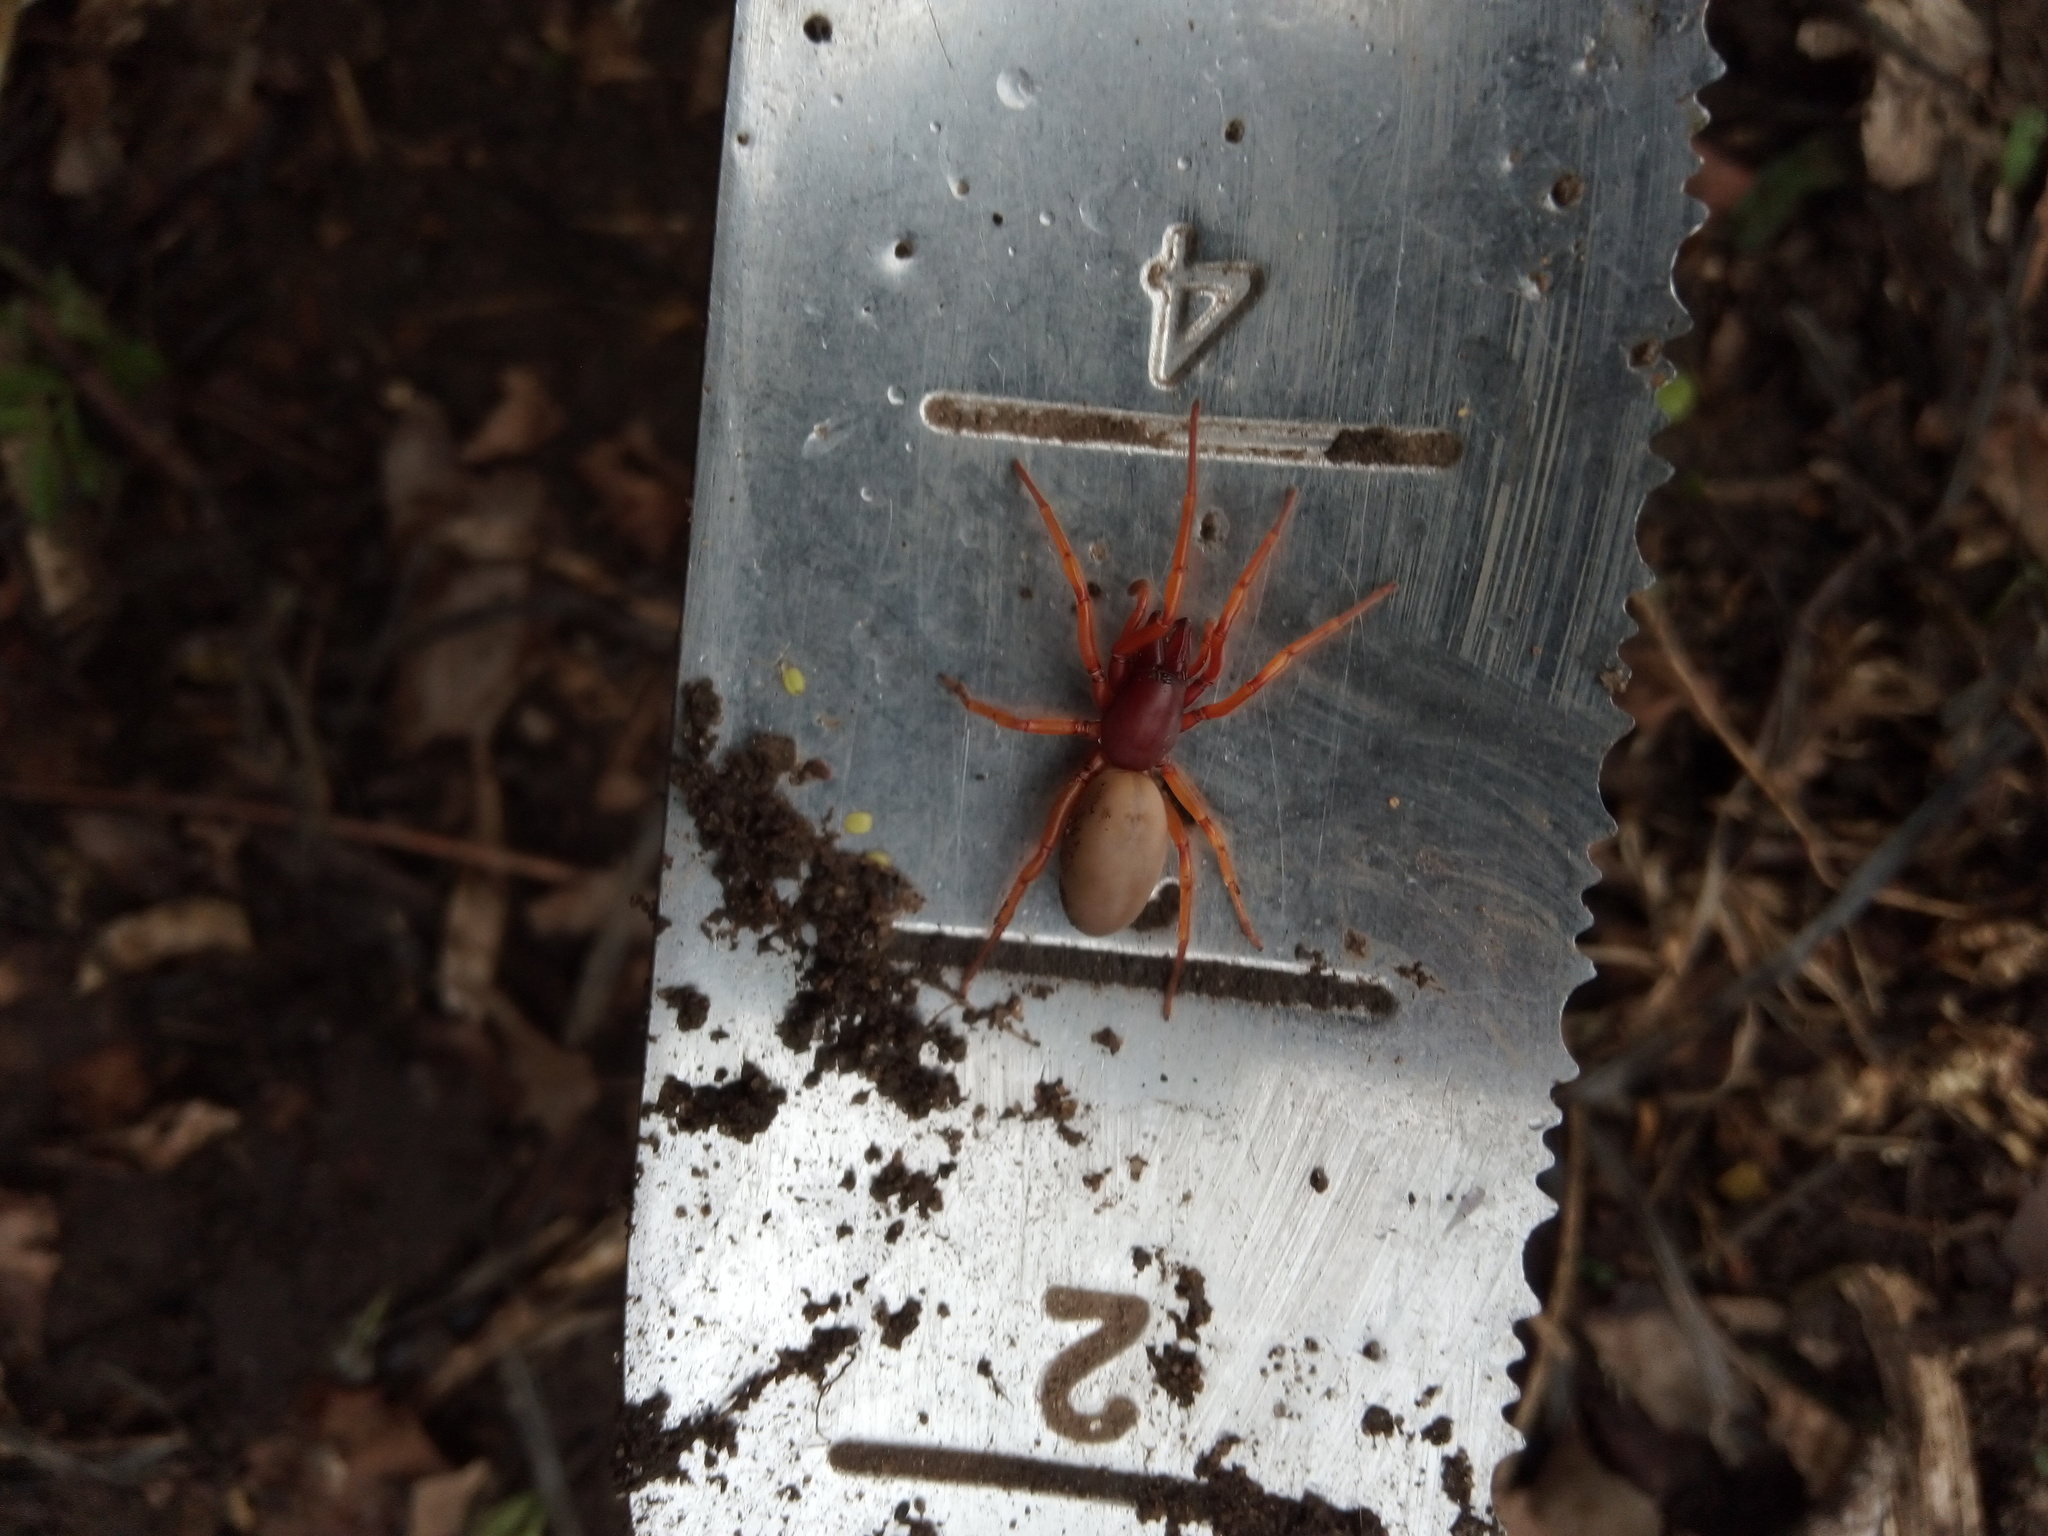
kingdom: Animalia
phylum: Arthropoda
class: Arachnida
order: Araneae
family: Dysderidae
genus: Dysdera
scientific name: Dysdera crocata
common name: Woodlouse spider
